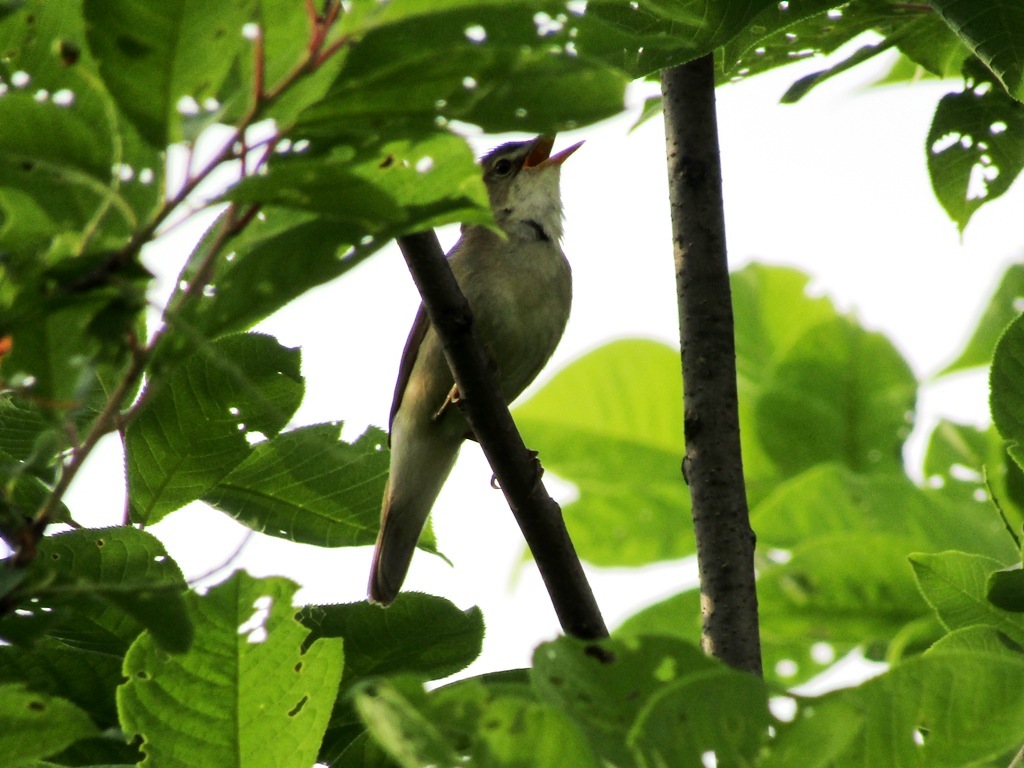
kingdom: Animalia
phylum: Chordata
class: Aves
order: Passeriformes
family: Acrocephalidae
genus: Acrocephalus
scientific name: Acrocephalus dumetorum
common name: Blyth's reed warbler
